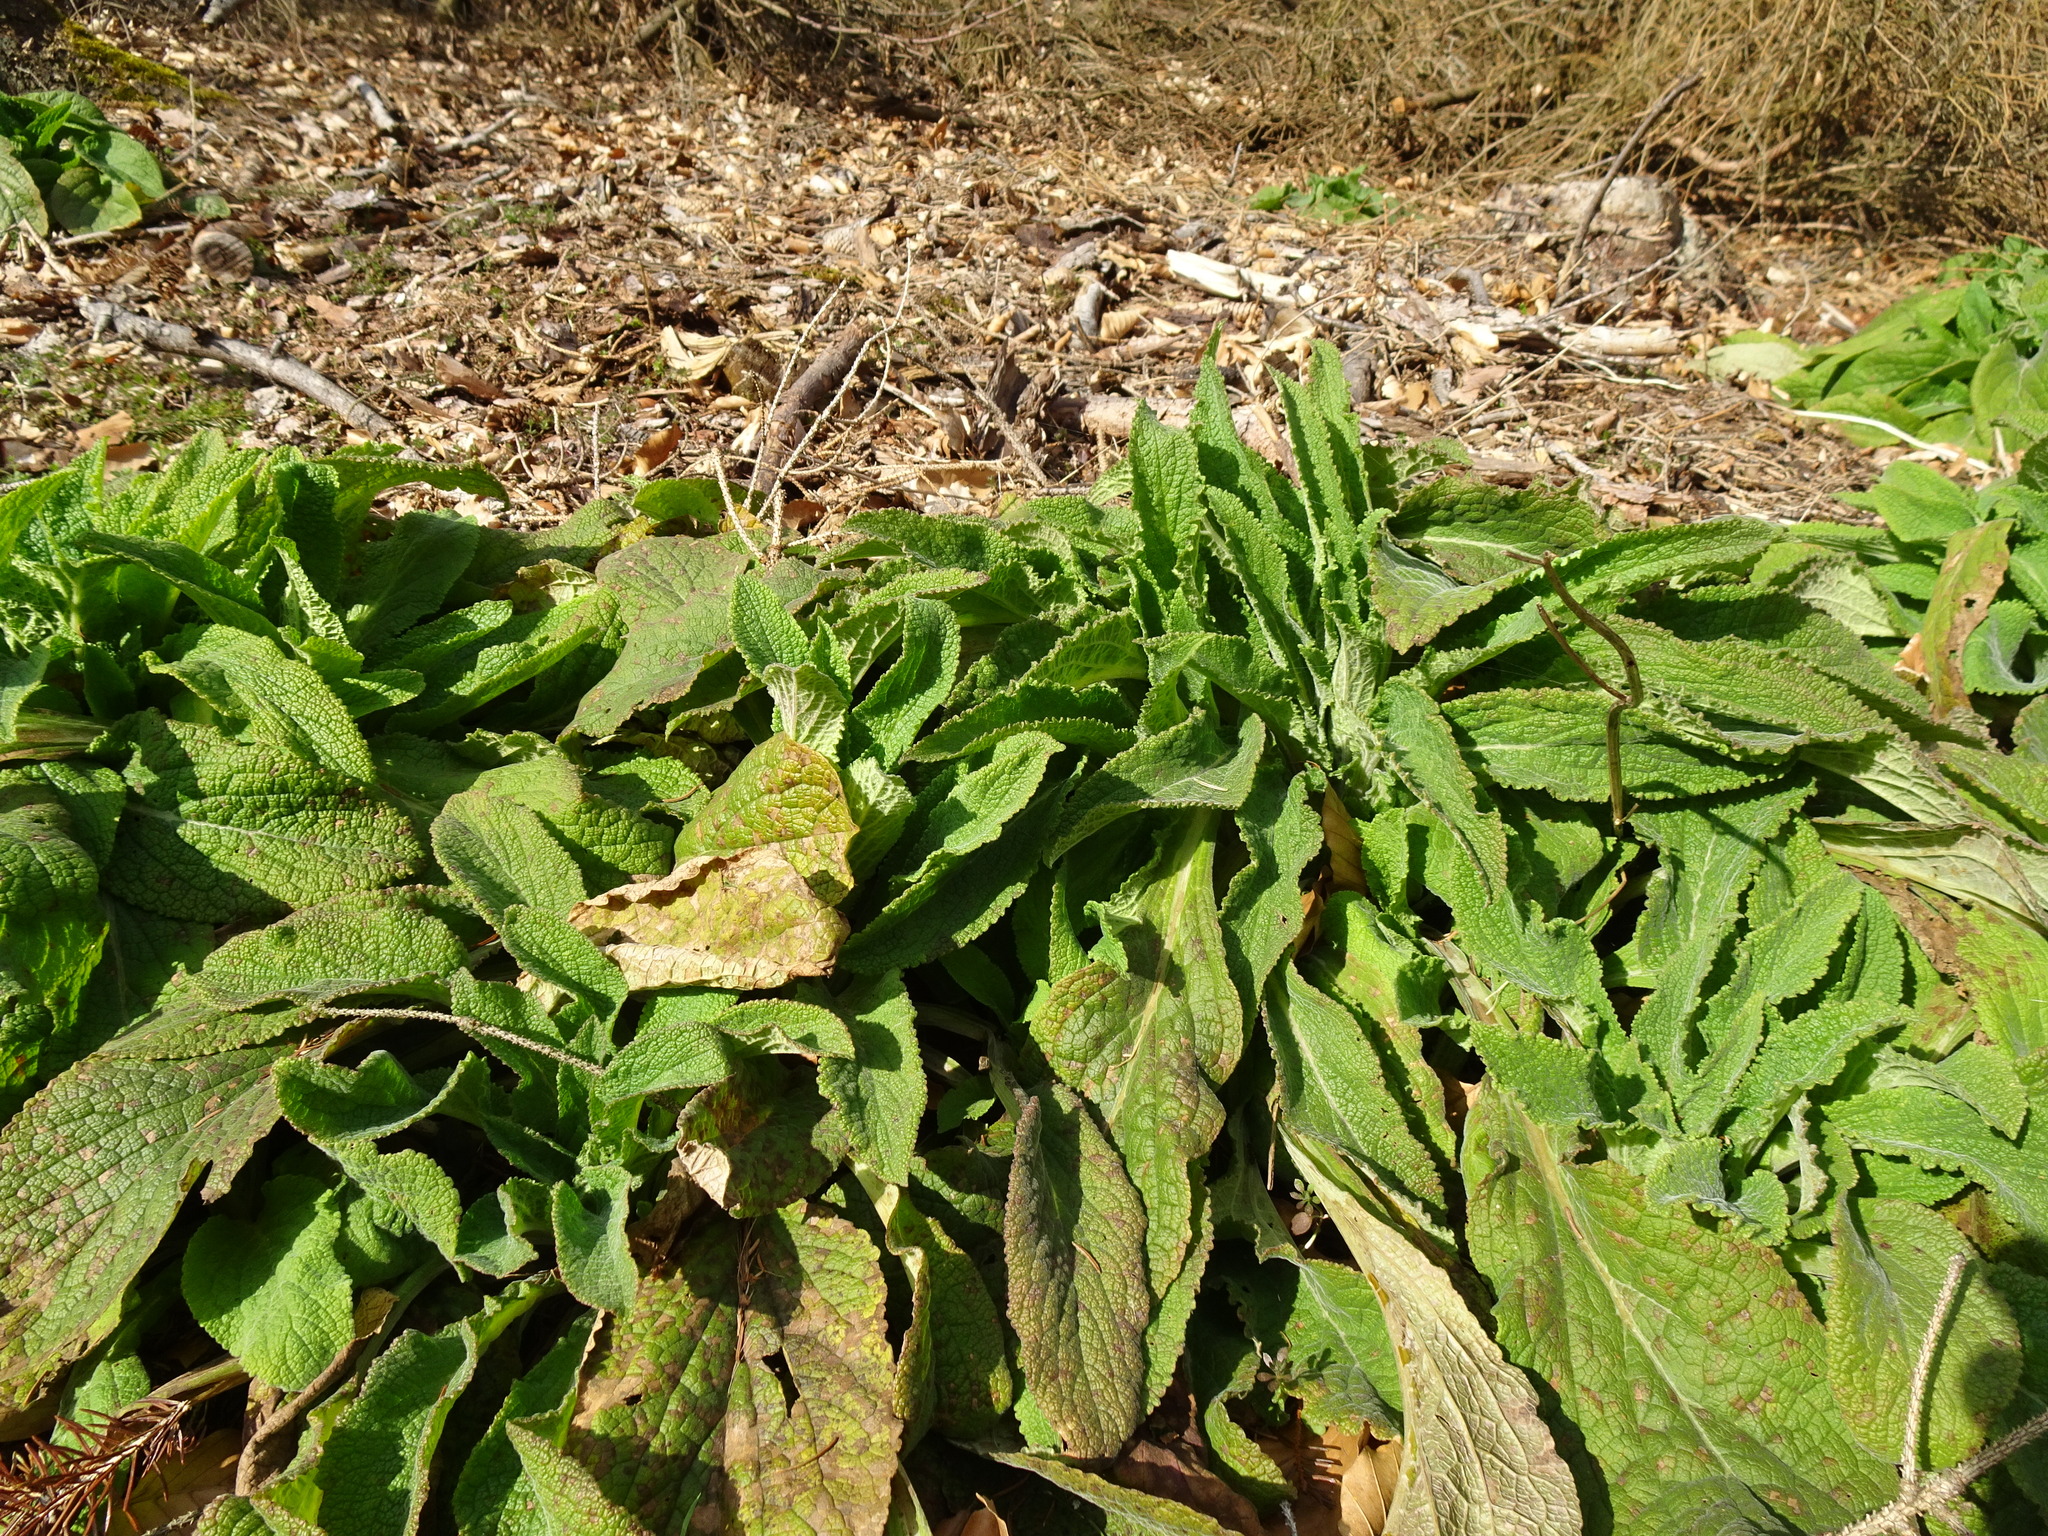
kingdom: Plantae
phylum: Tracheophyta
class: Magnoliopsida
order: Lamiales
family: Plantaginaceae
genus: Digitalis
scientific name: Digitalis purpurea
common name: Foxglove
